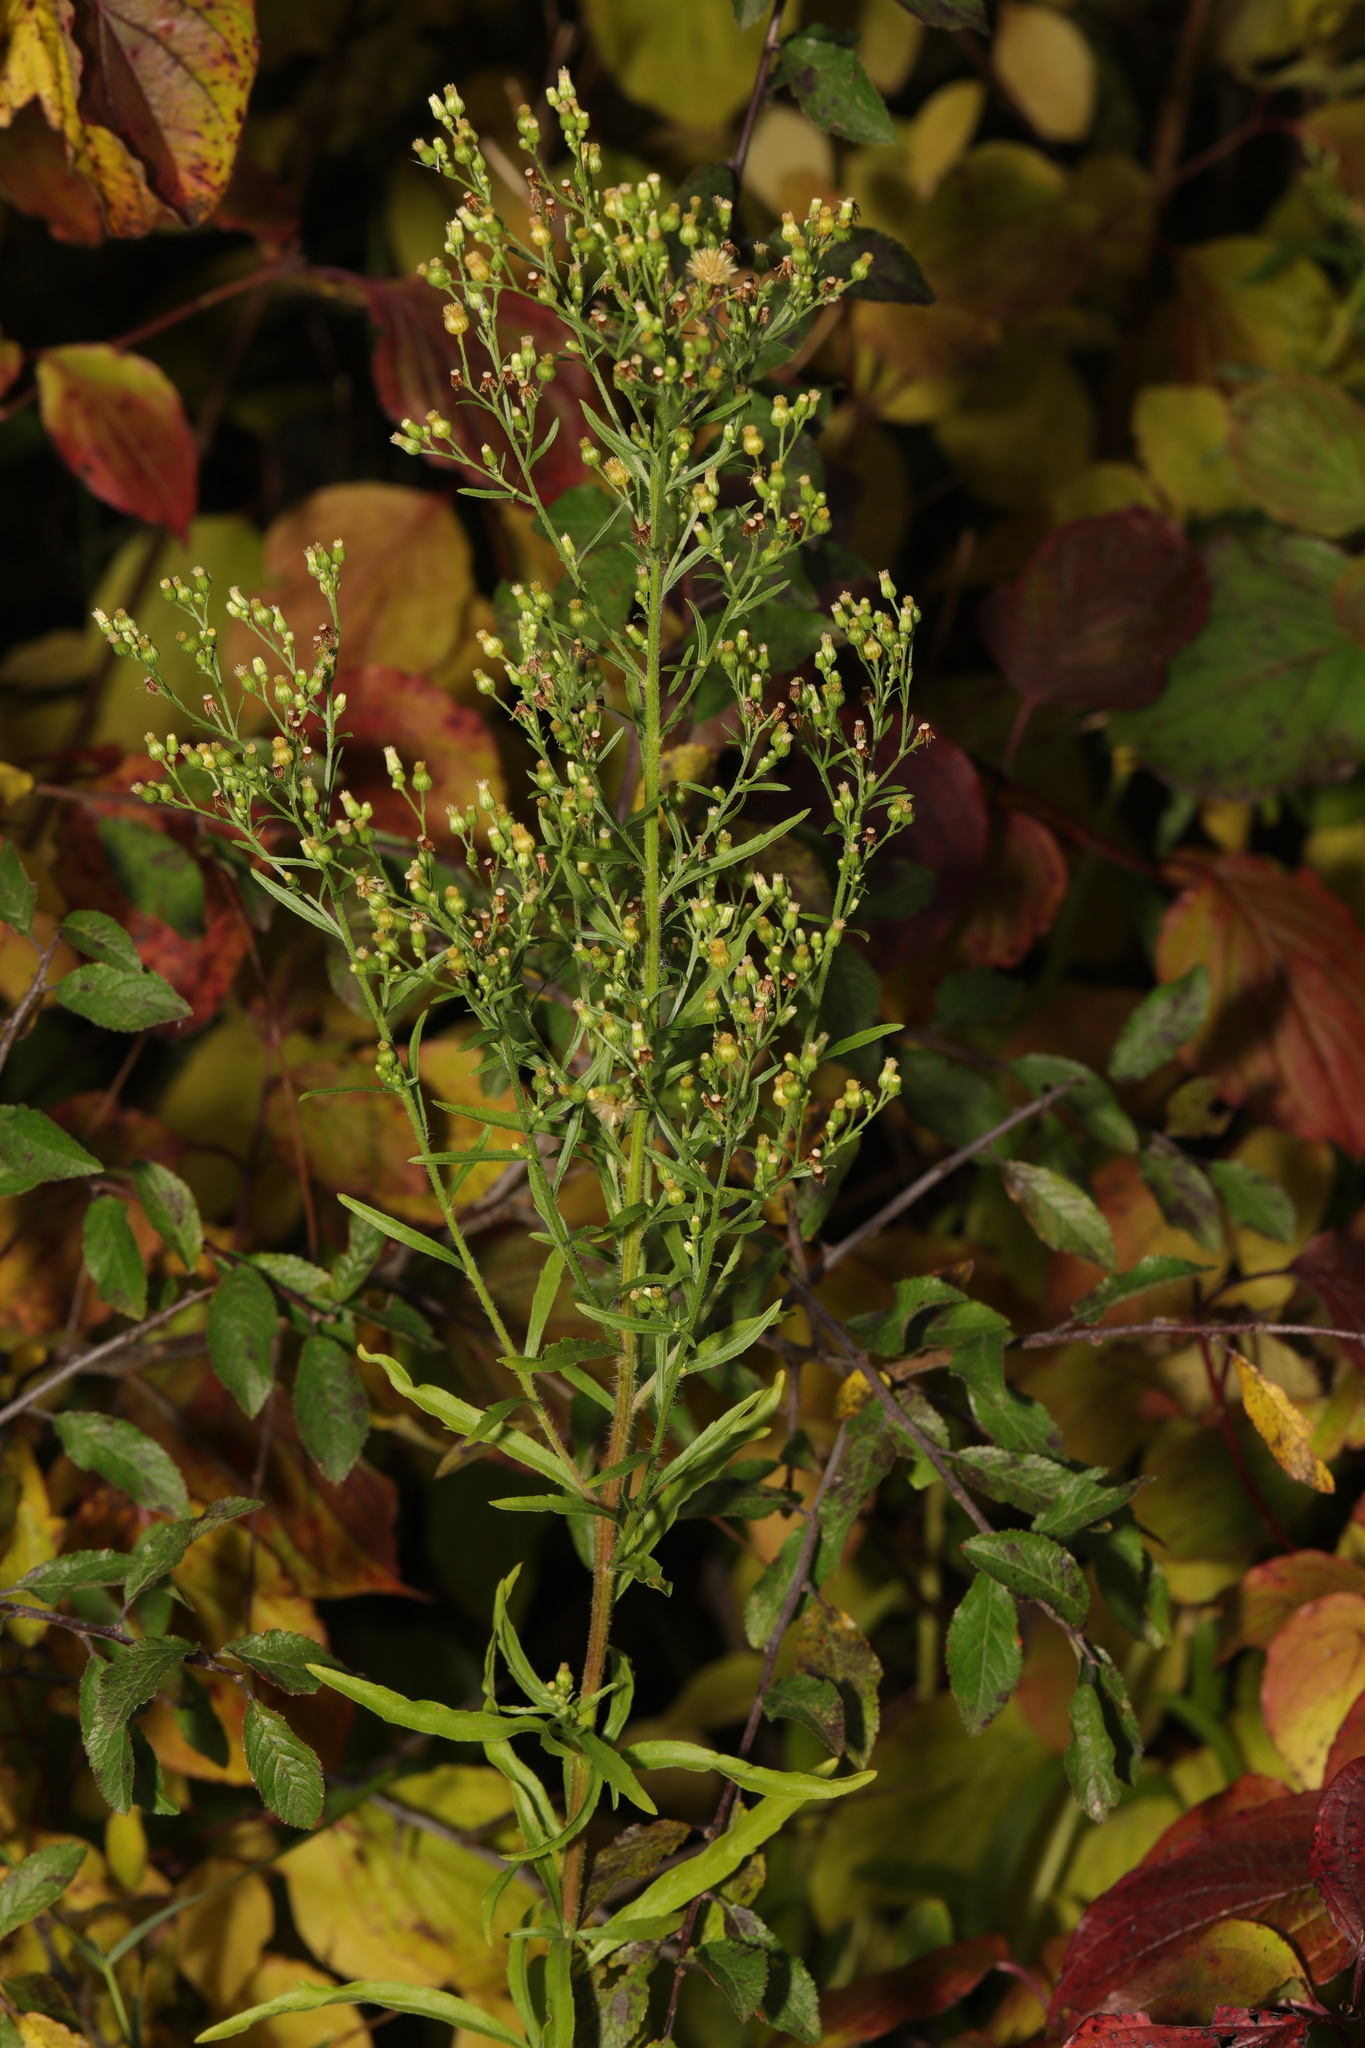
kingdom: Plantae
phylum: Tracheophyta
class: Magnoliopsida
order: Asterales
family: Asteraceae
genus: Erigeron
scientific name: Erigeron floribundus
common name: Bilbao fleabane
